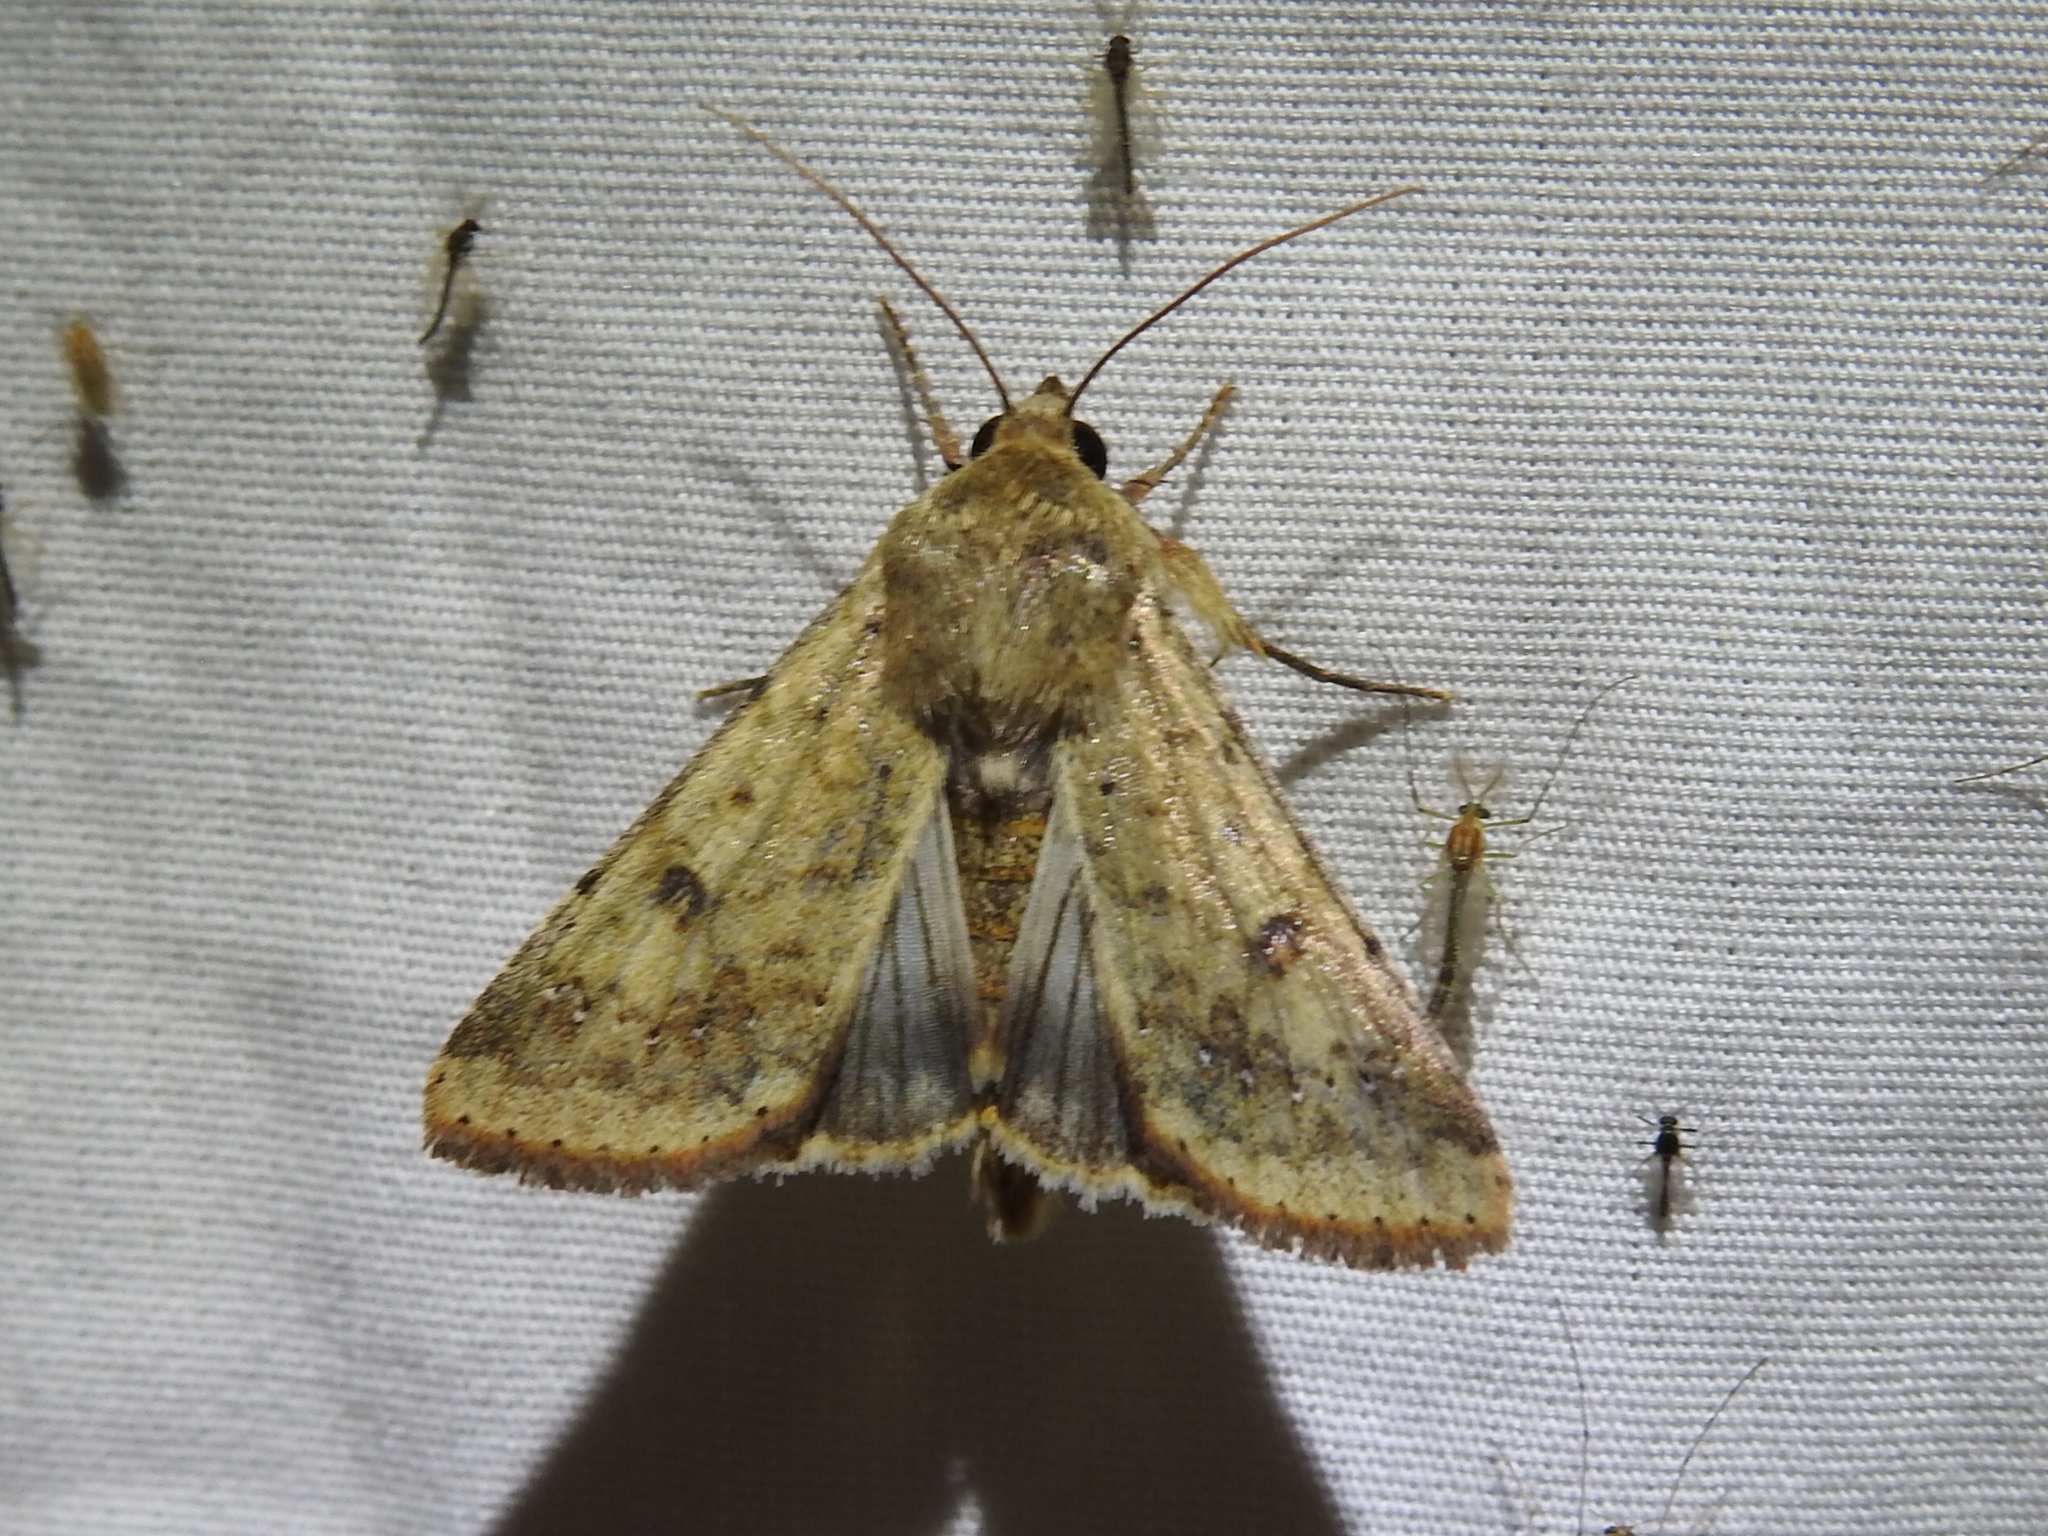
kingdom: Animalia
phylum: Arthropoda
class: Insecta
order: Lepidoptera
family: Noctuidae
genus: Helicoverpa
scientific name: Helicoverpa zea
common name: Bollworm
